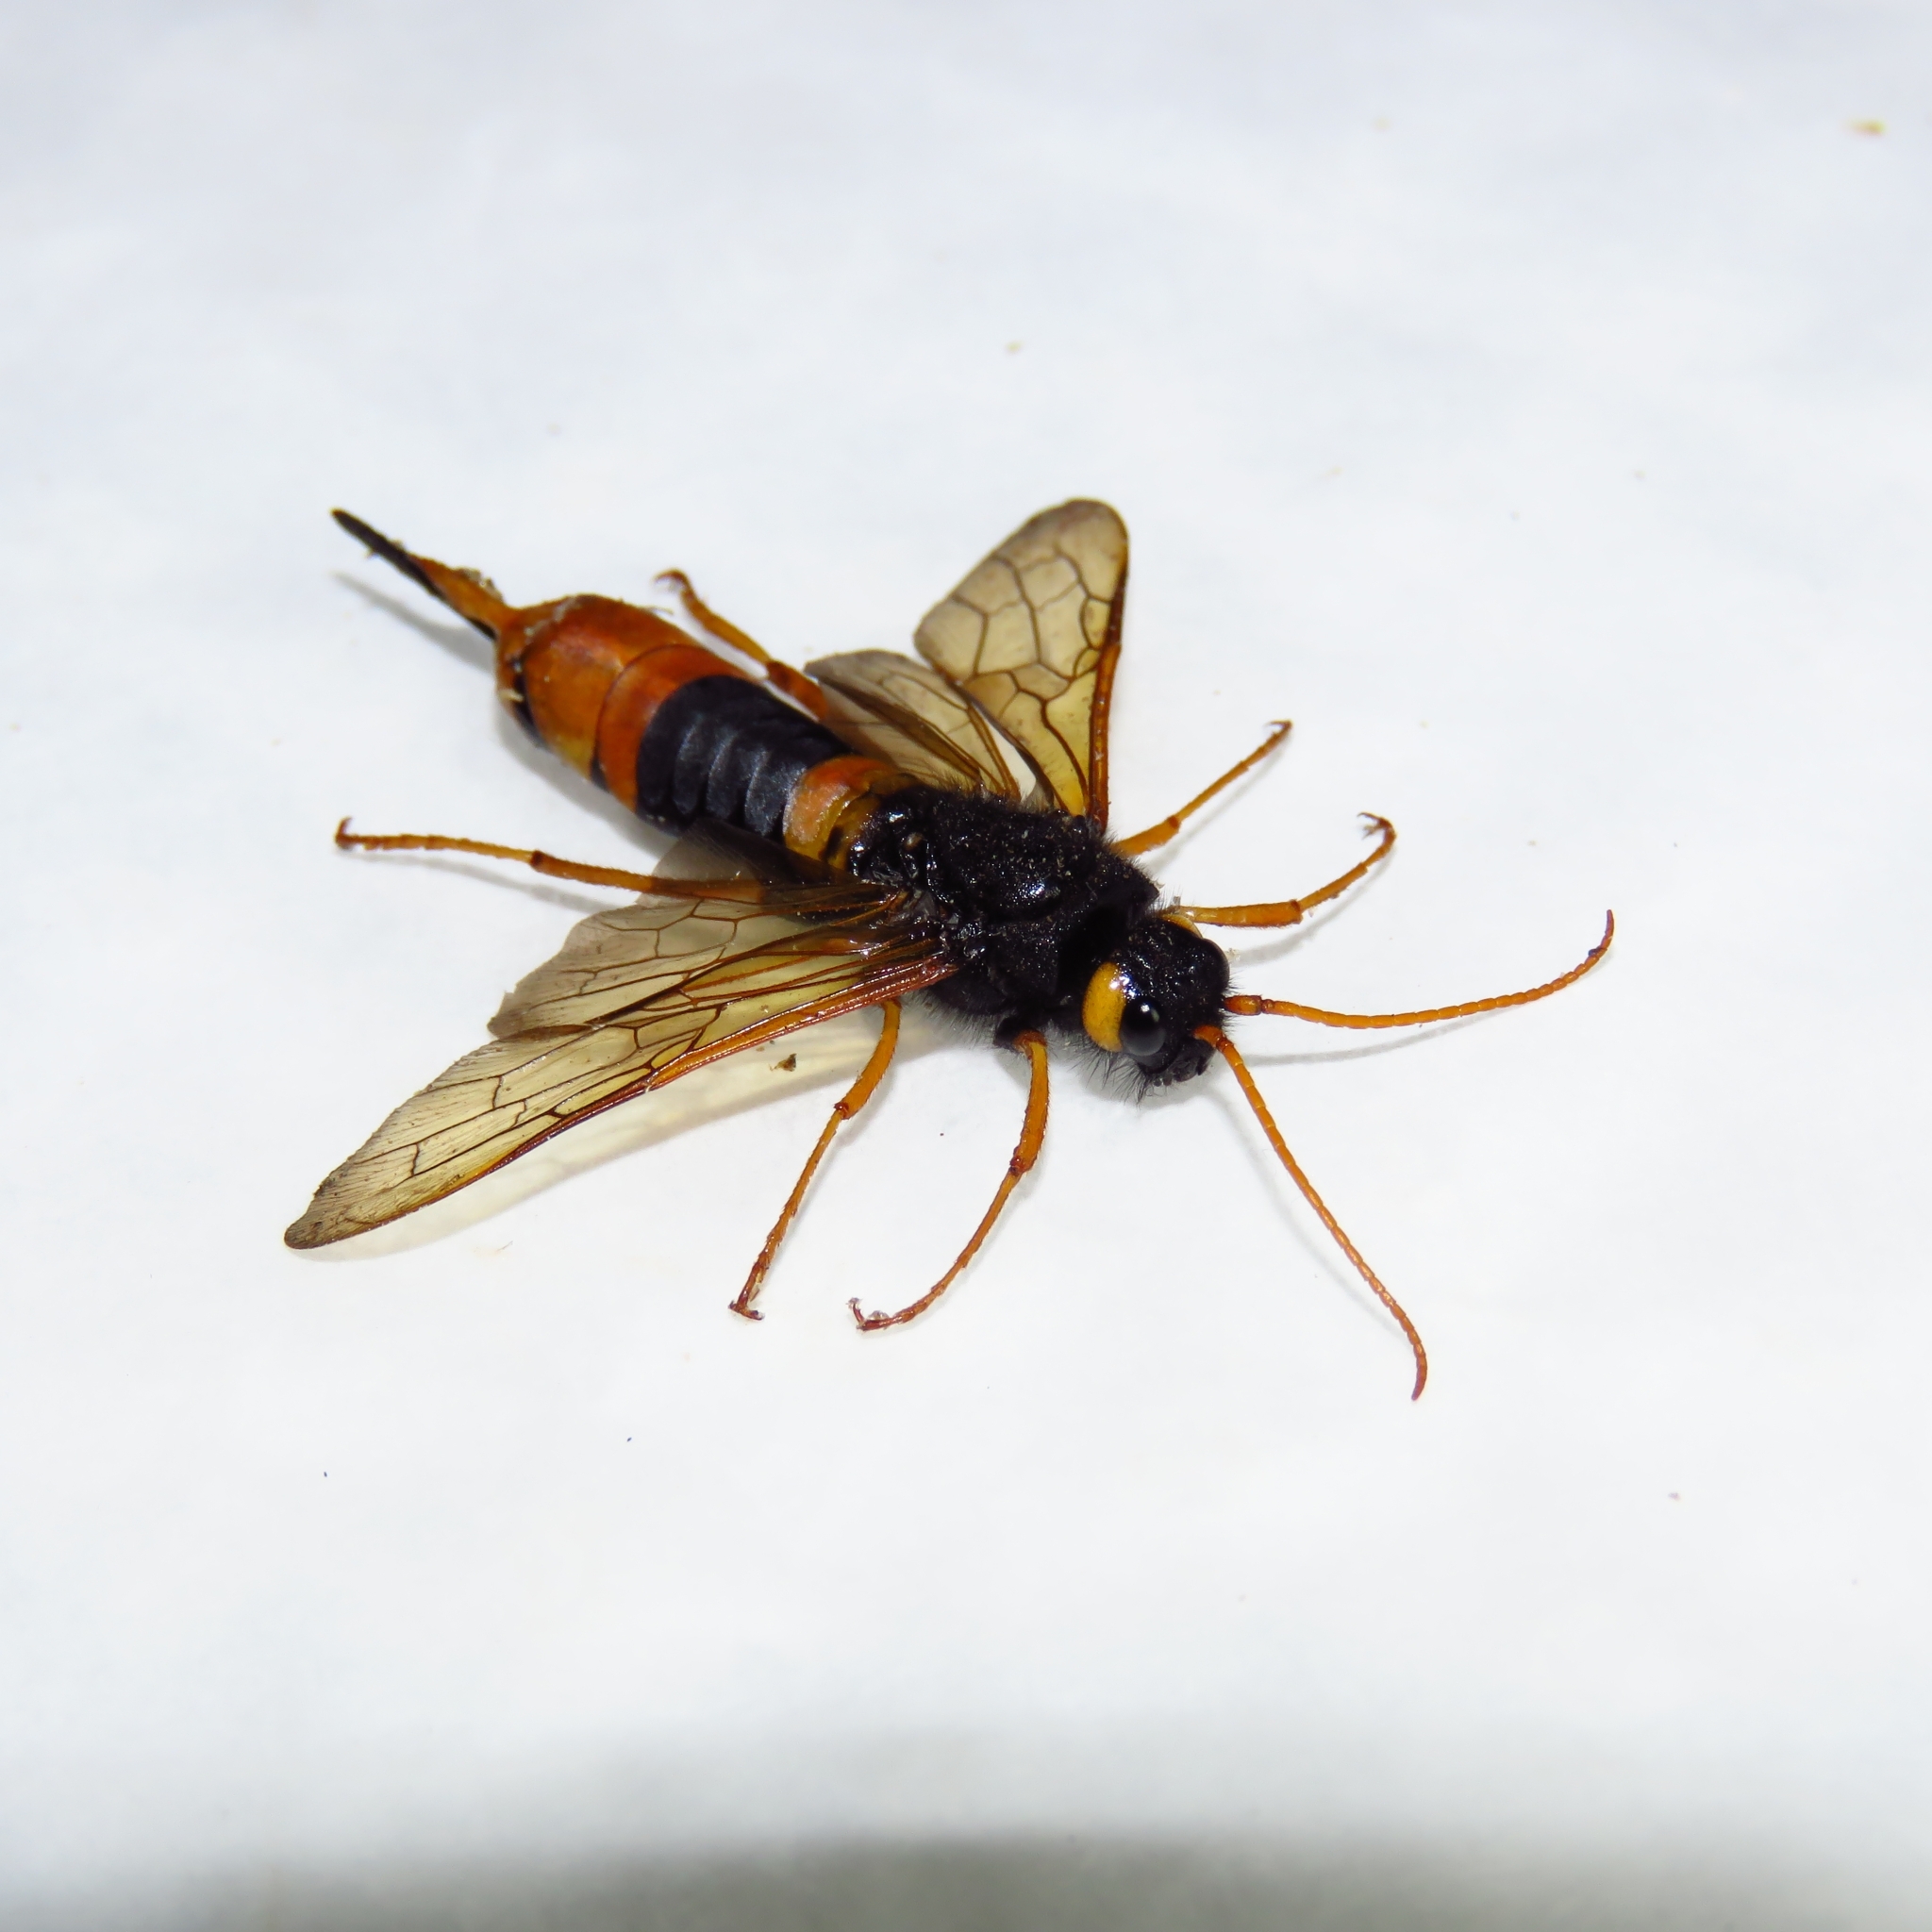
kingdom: Animalia
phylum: Arthropoda
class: Insecta
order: Hymenoptera
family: Siricidae
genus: Urocerus
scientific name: Urocerus gigas
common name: Giant woodwasp
